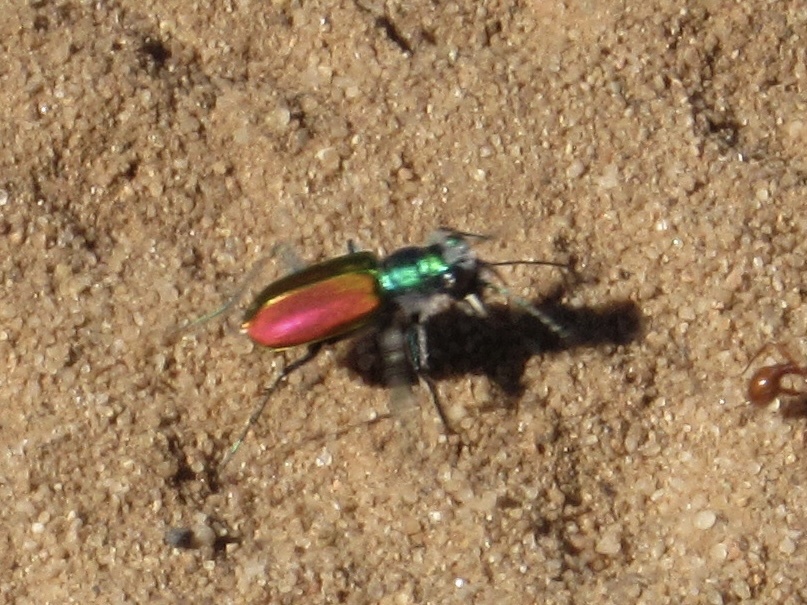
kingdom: Animalia
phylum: Arthropoda
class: Insecta
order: Coleoptera
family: Carabidae
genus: Cicindela
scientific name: Cicindela scutellaris
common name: Festive tiger beetle
